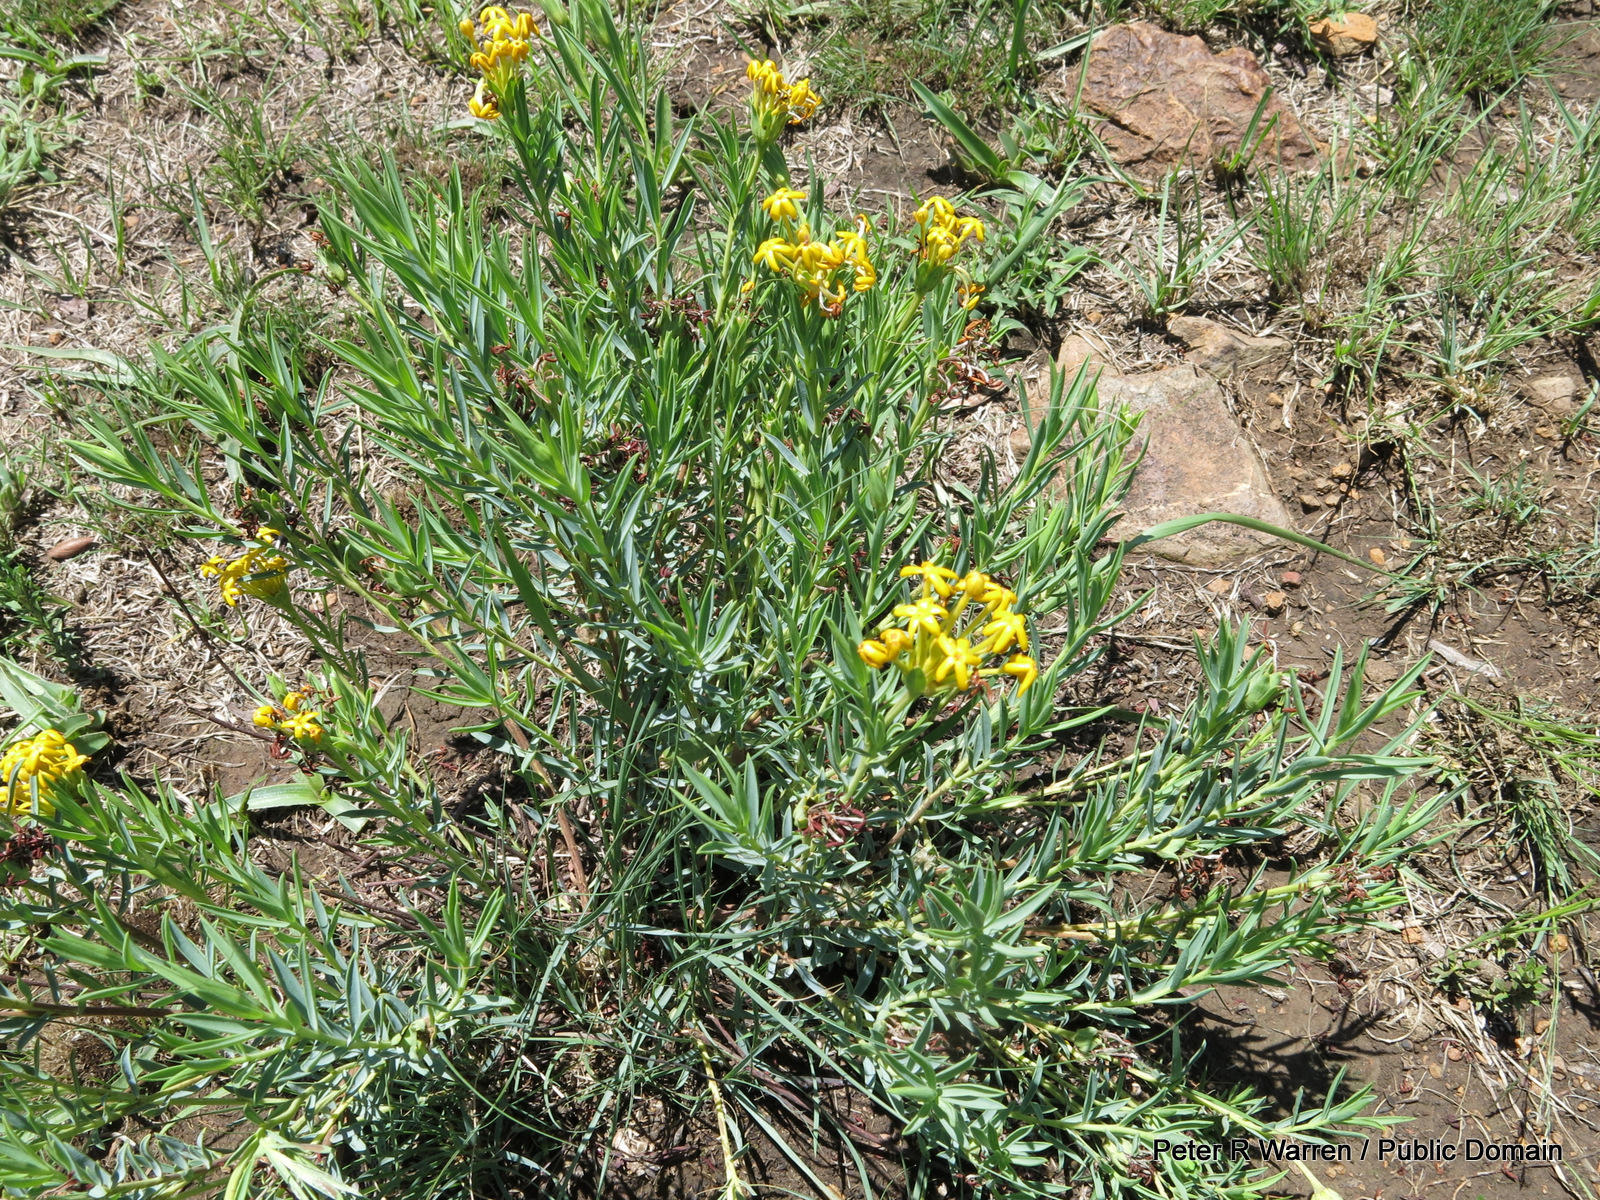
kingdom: Plantae
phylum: Tracheophyta
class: Magnoliopsida
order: Malvales
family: Thymelaeaceae
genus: Gnidia
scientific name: Gnidia capitata
